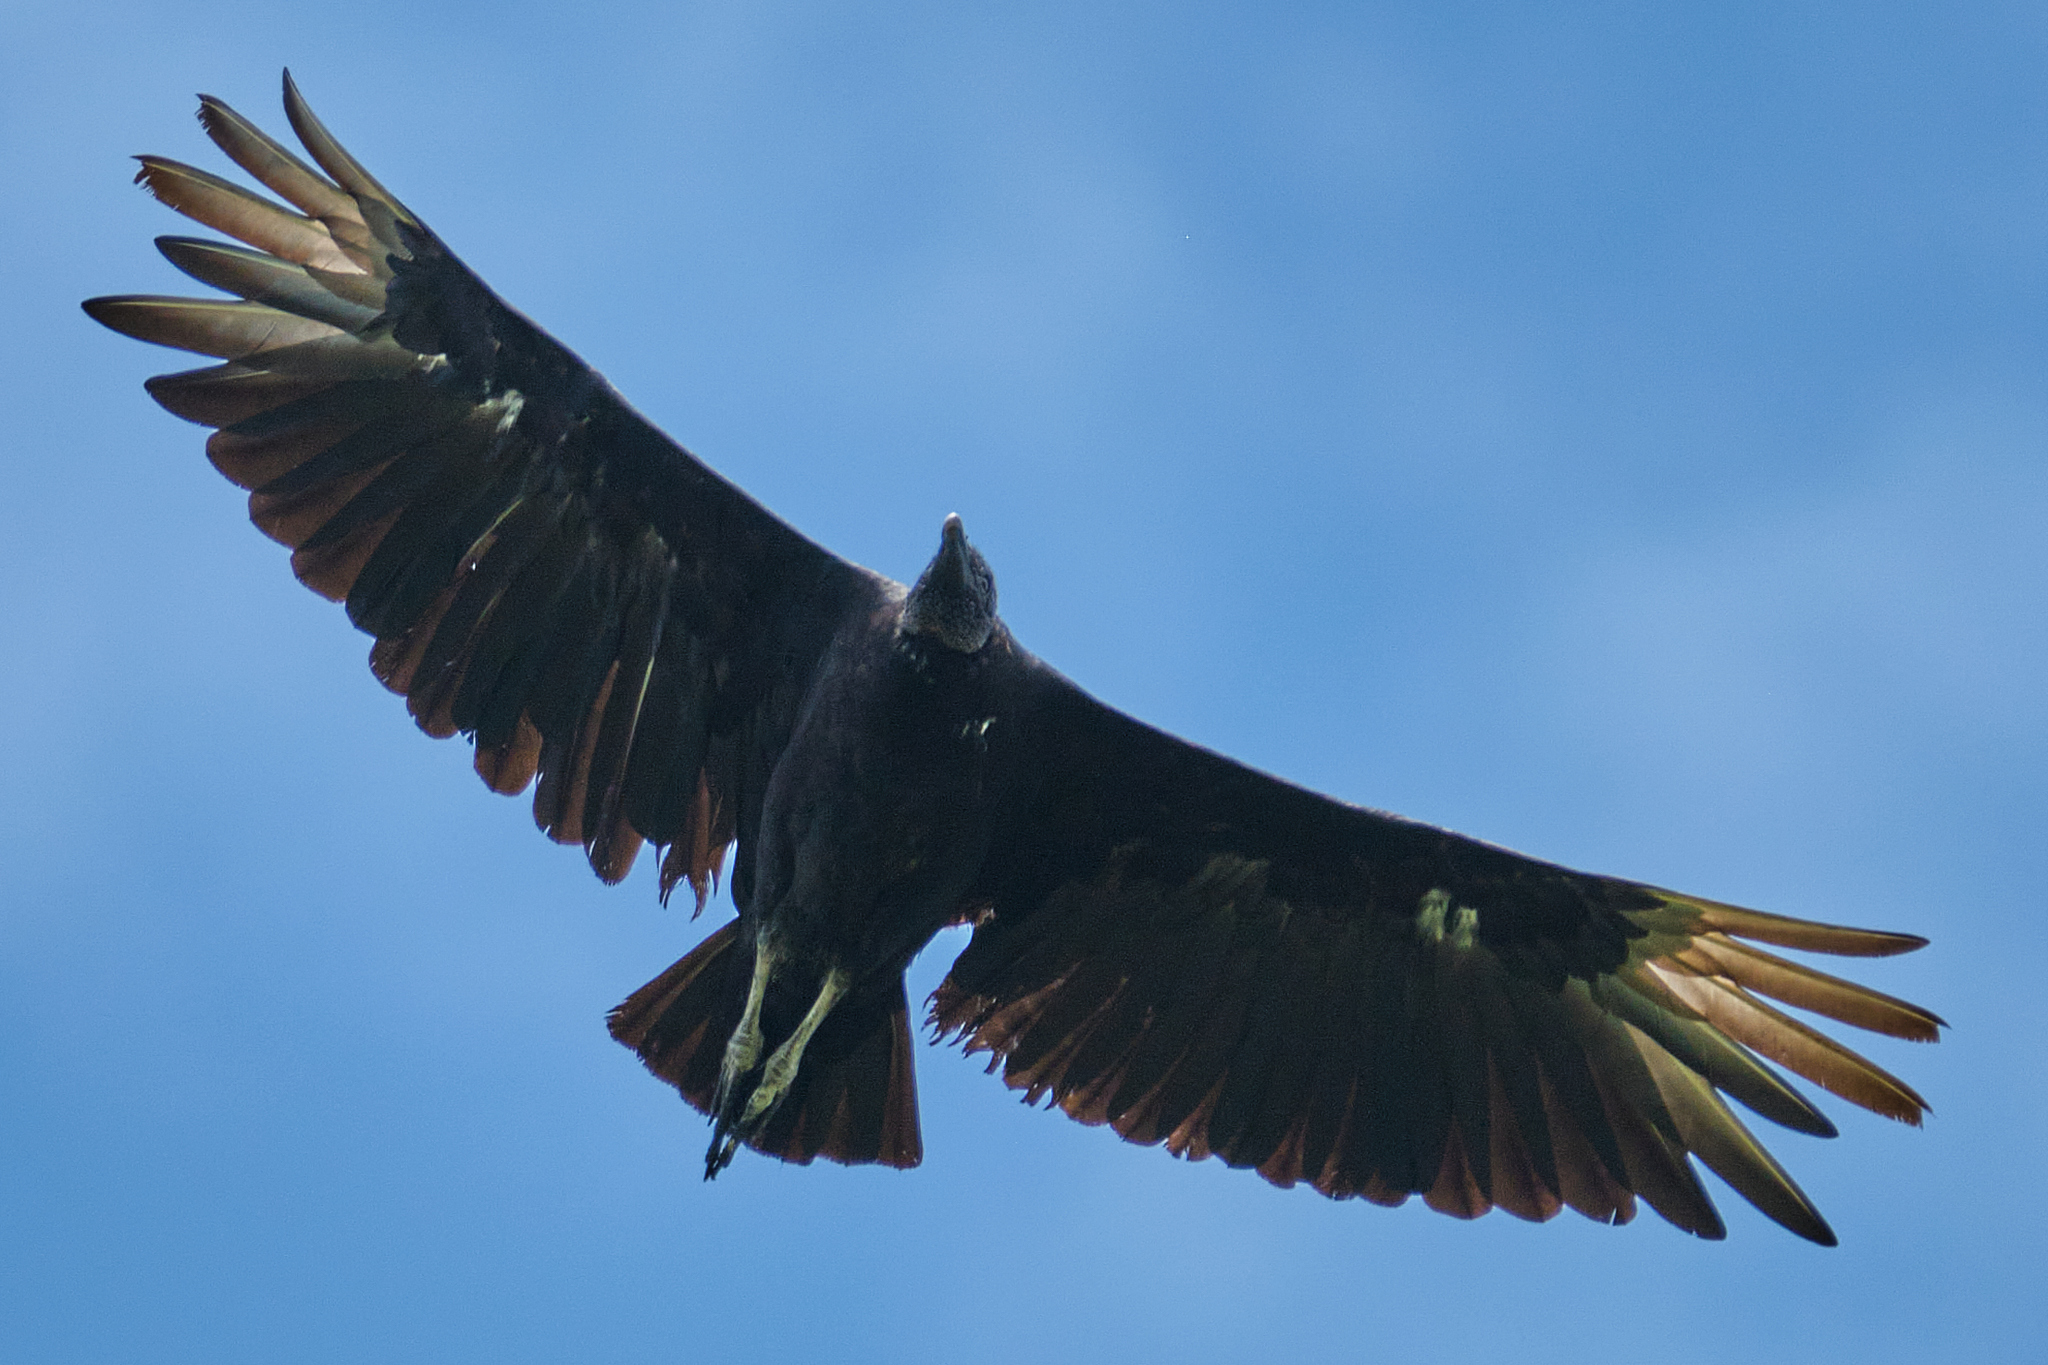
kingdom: Animalia
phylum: Chordata
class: Aves
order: Accipitriformes
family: Cathartidae
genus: Coragyps
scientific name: Coragyps atratus
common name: Black vulture
